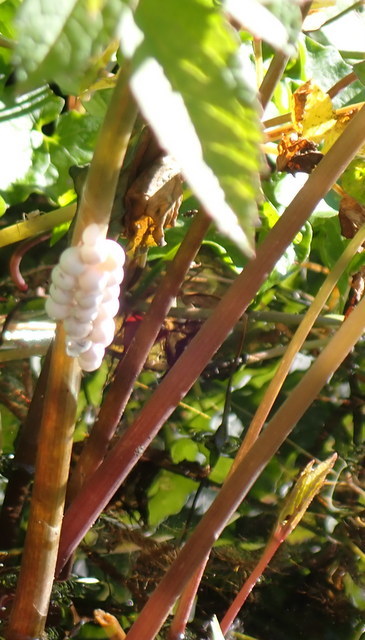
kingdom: Animalia
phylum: Mollusca
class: Gastropoda
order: Architaenioglossa
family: Ampullariidae
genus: Pomacea
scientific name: Pomacea paludosa
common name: Florida applesnail
